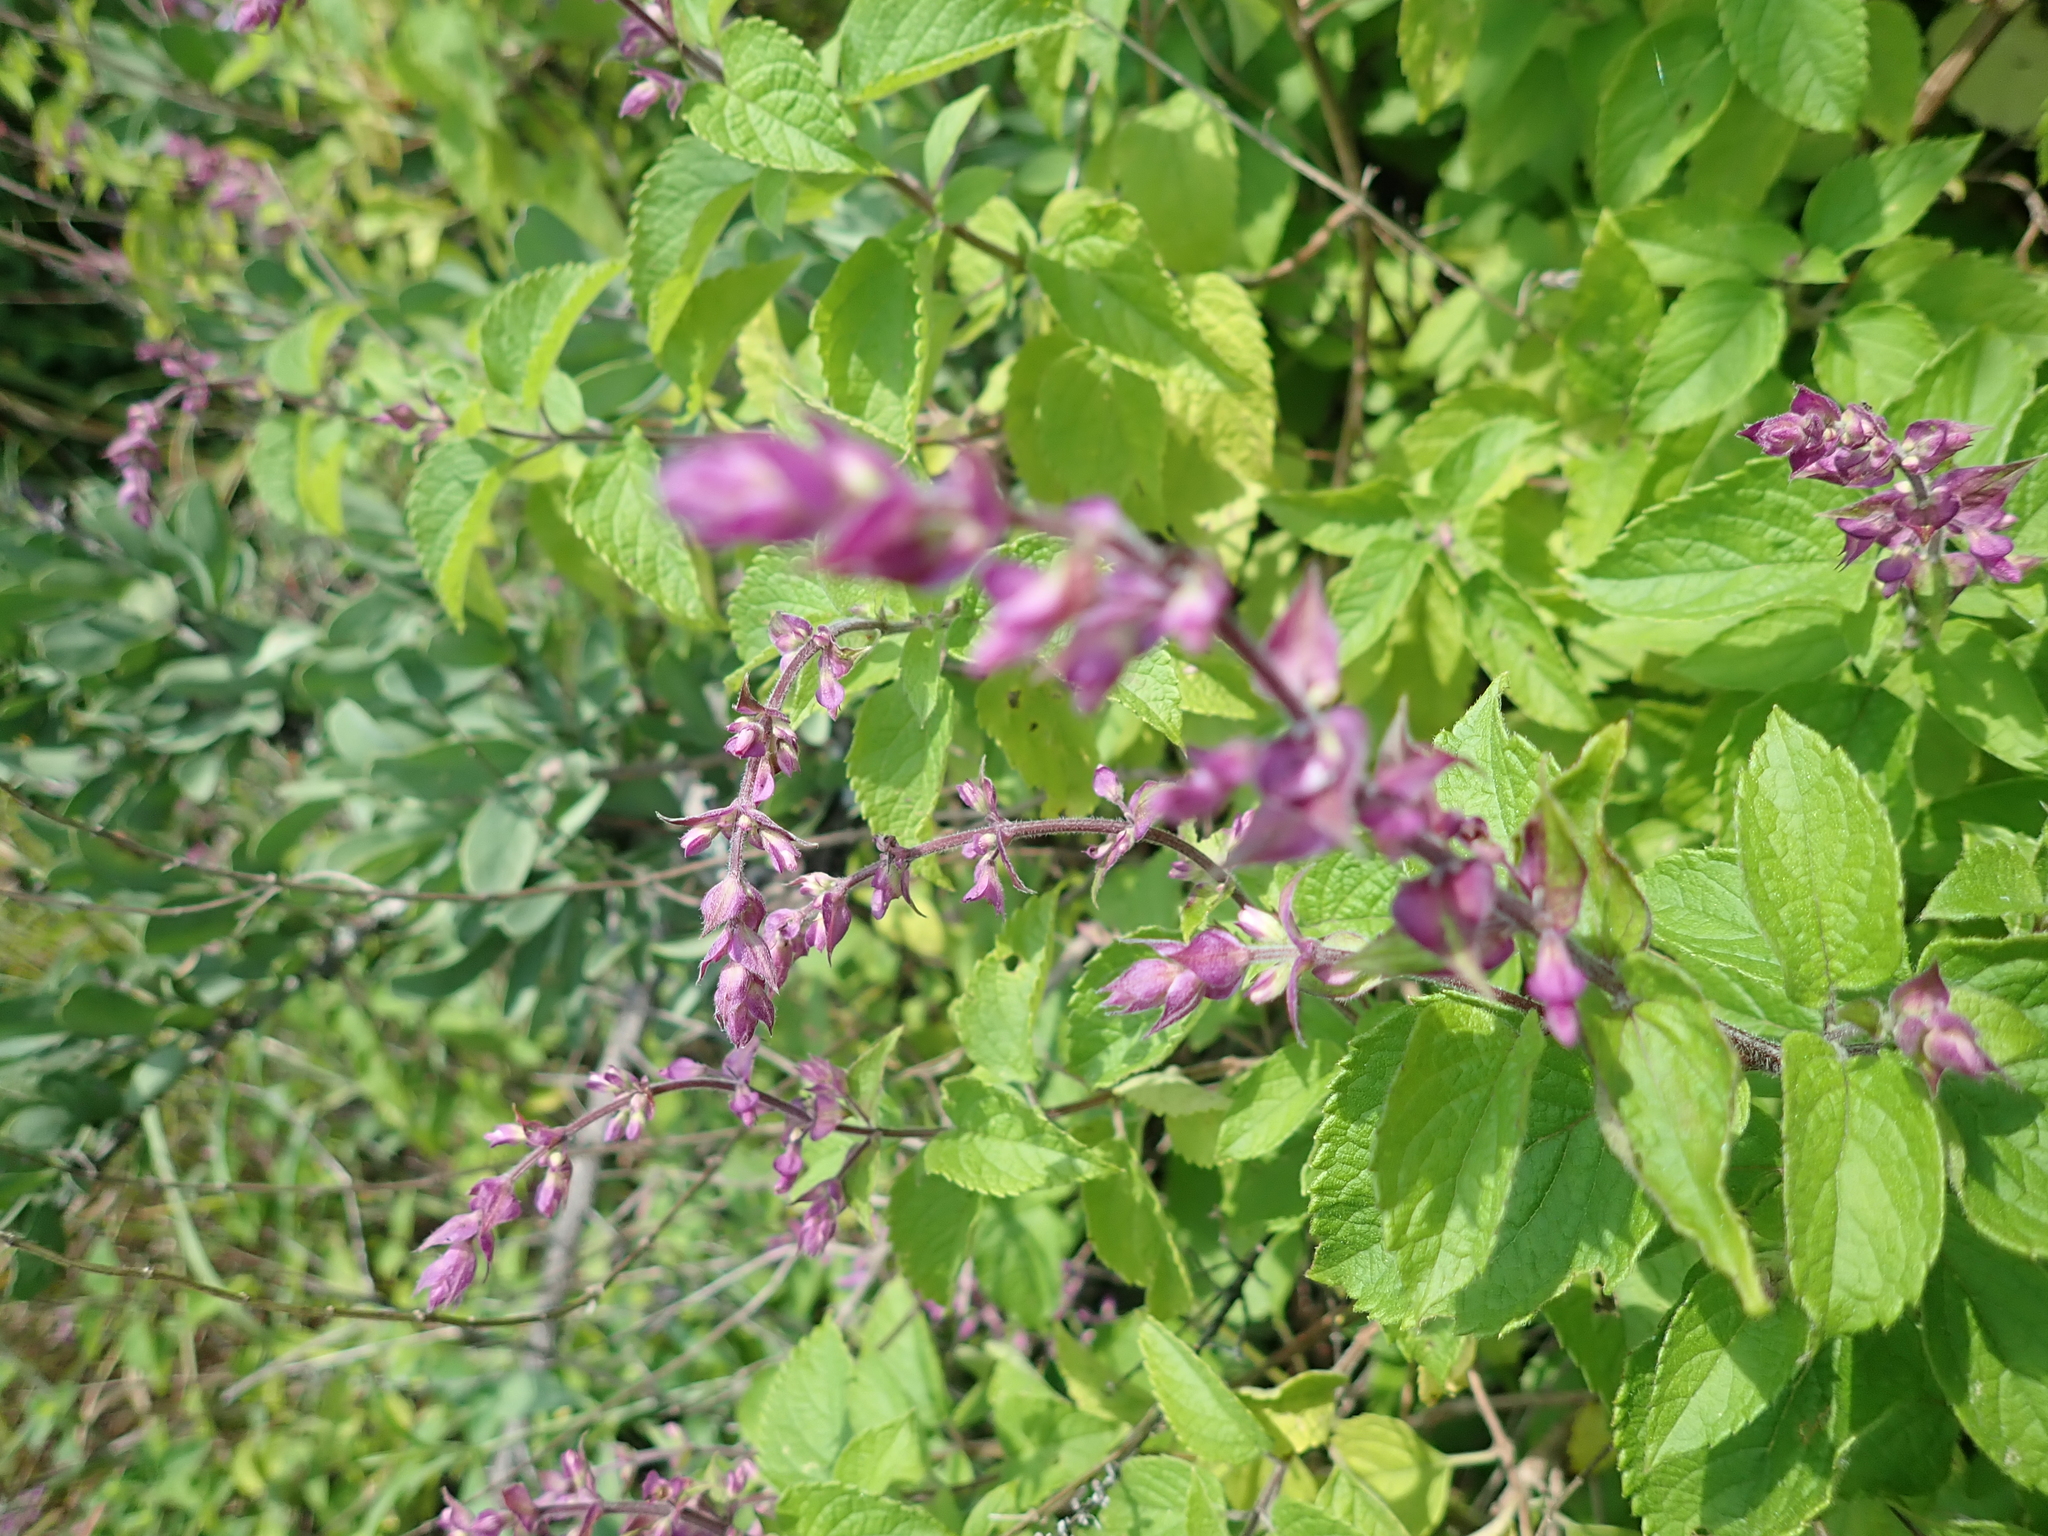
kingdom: Plantae
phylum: Tracheophyta
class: Magnoliopsida
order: Lamiales
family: Lamiaceae
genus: Ocimum
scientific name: Ocimum labiatum
